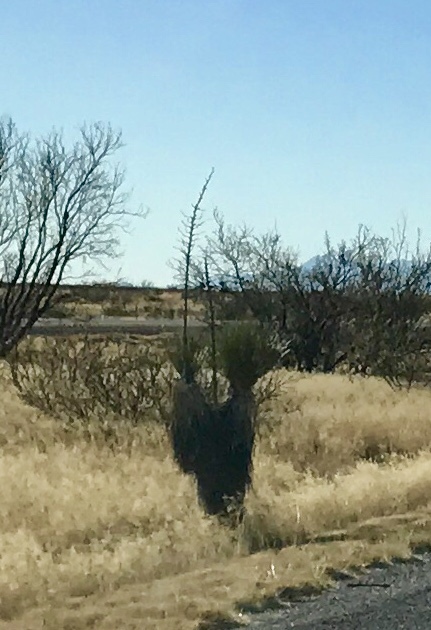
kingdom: Plantae
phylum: Tracheophyta
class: Liliopsida
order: Asparagales
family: Asparagaceae
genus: Yucca
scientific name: Yucca elata
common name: Palmella
